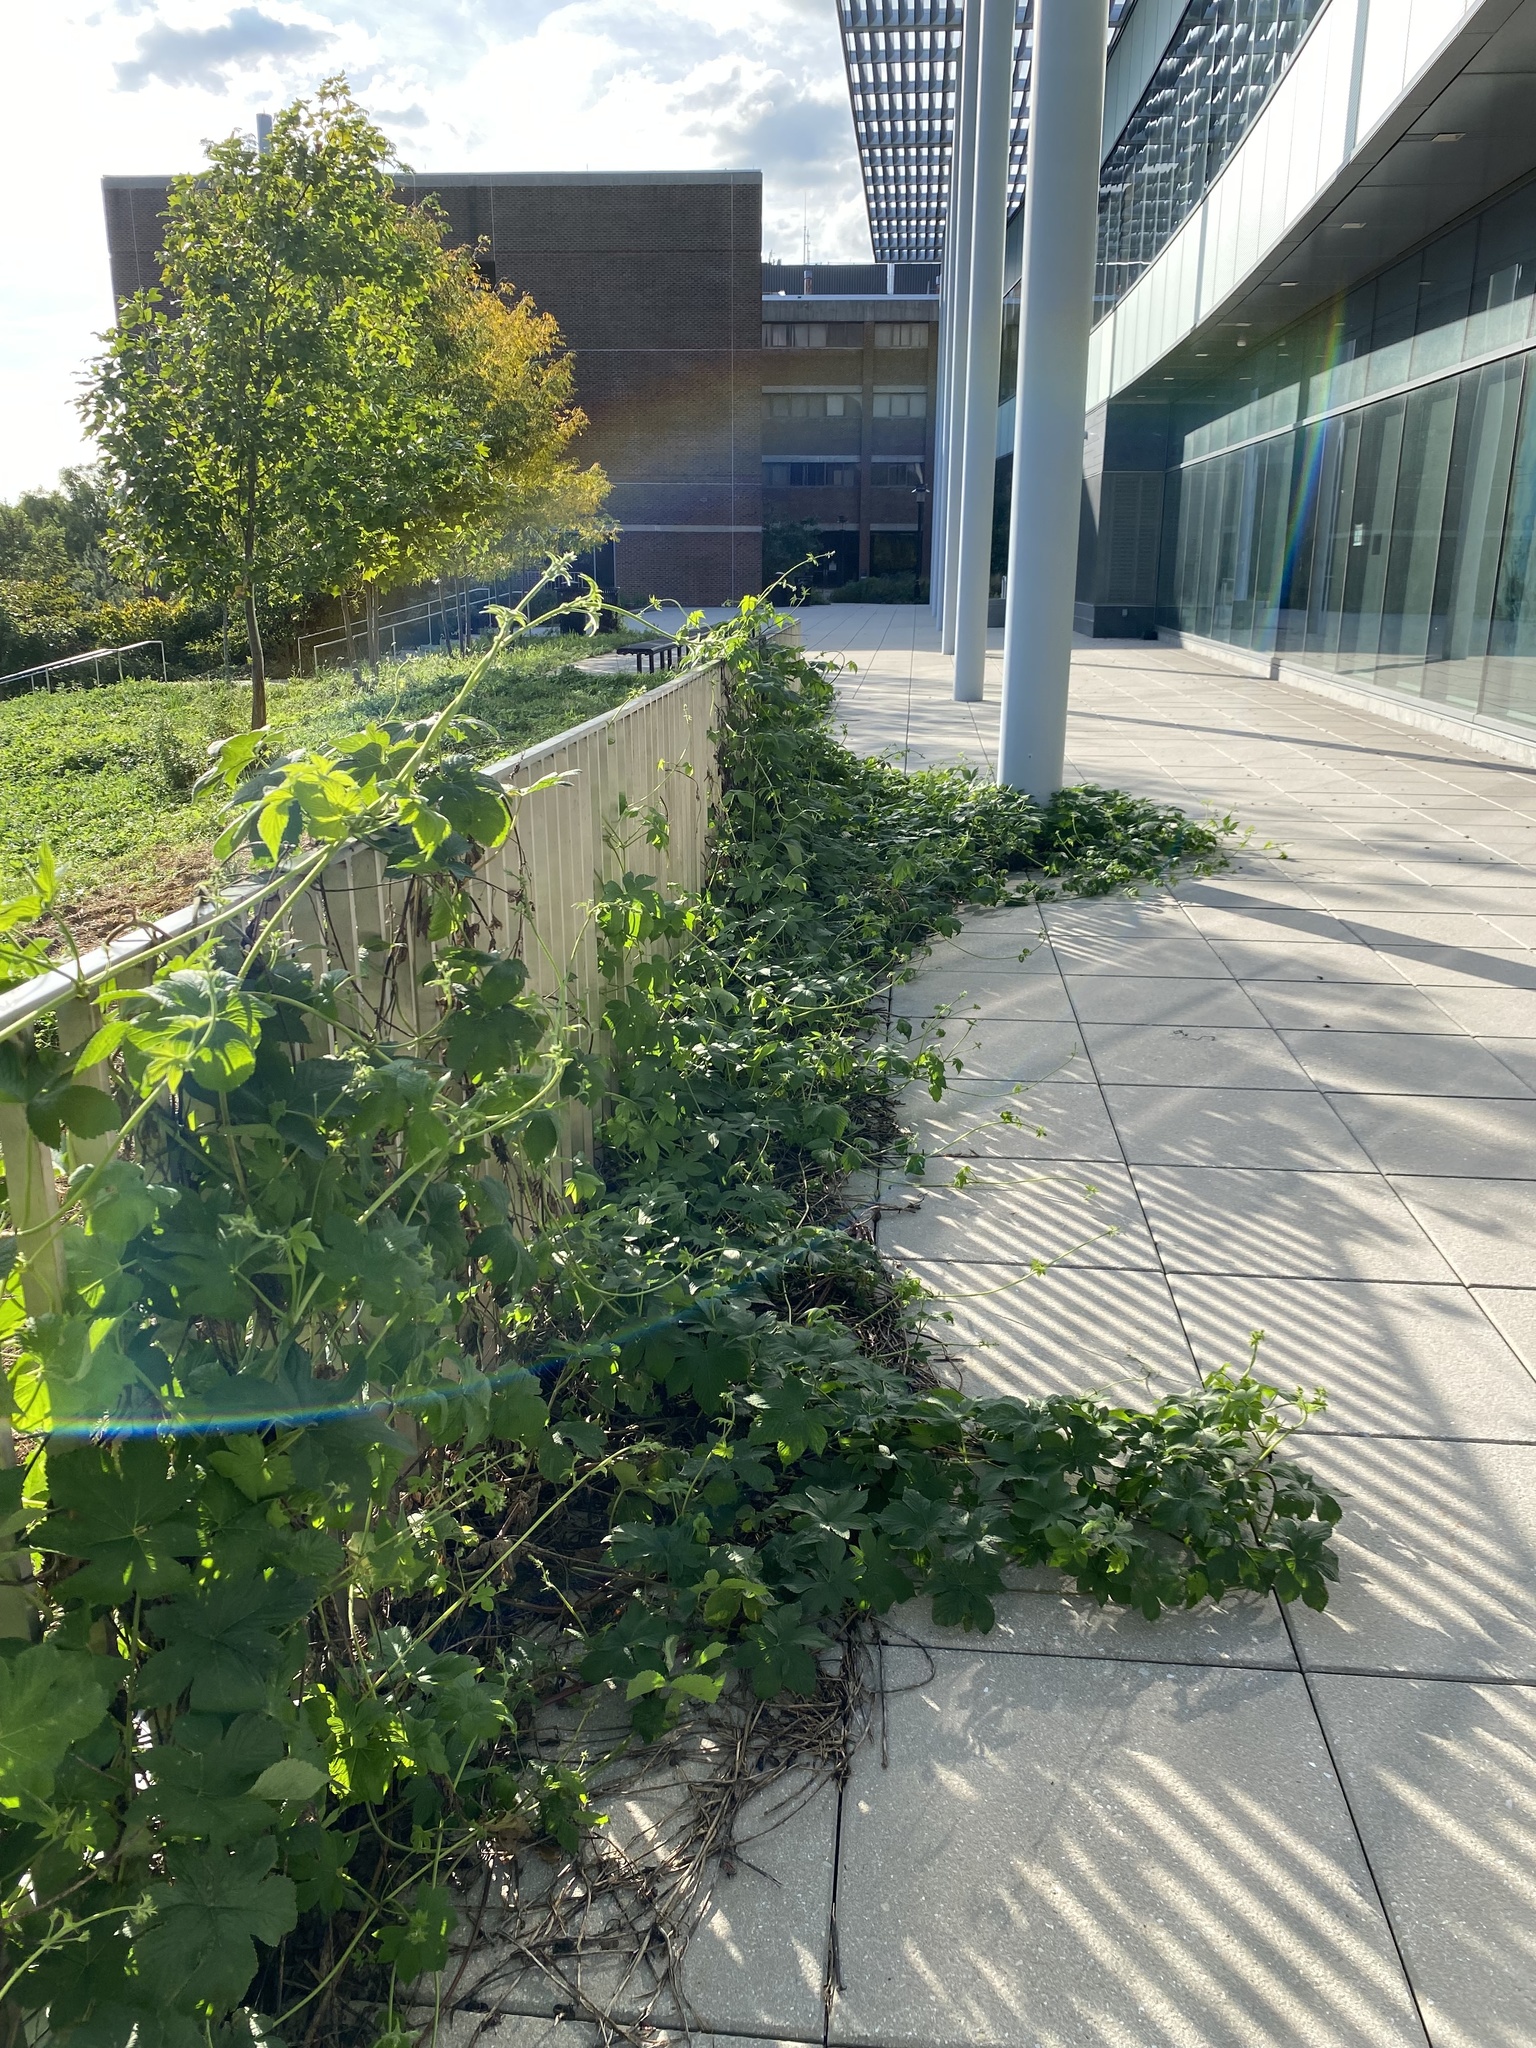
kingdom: Plantae
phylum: Tracheophyta
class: Magnoliopsida
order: Rosales
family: Cannabaceae
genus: Humulus
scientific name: Humulus scandens
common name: Japanese hop
